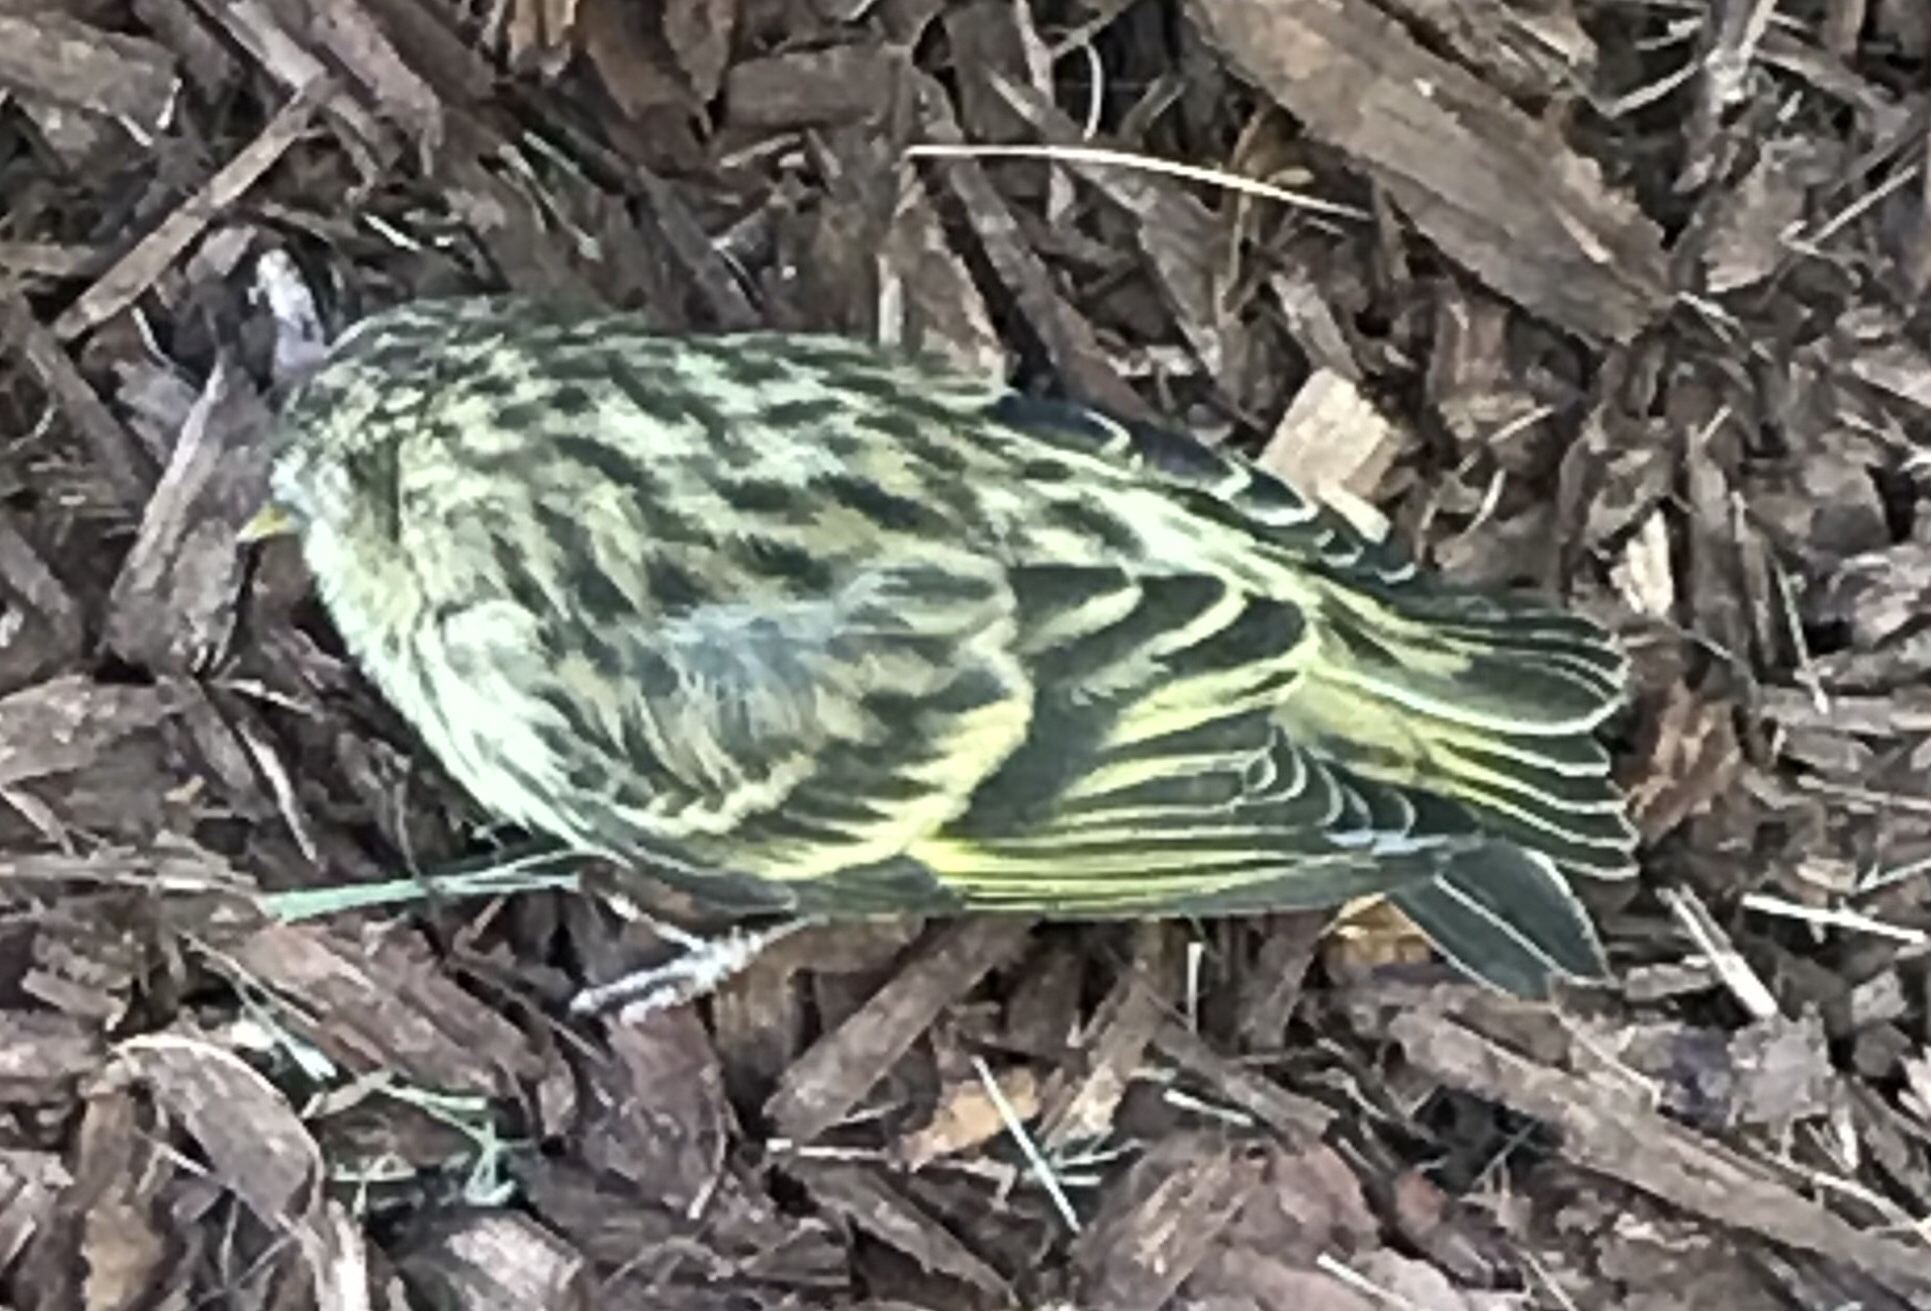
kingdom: Animalia
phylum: Chordata
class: Aves
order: Passeriformes
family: Fringillidae
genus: Spinus
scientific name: Spinus pinus
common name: Pine siskin
